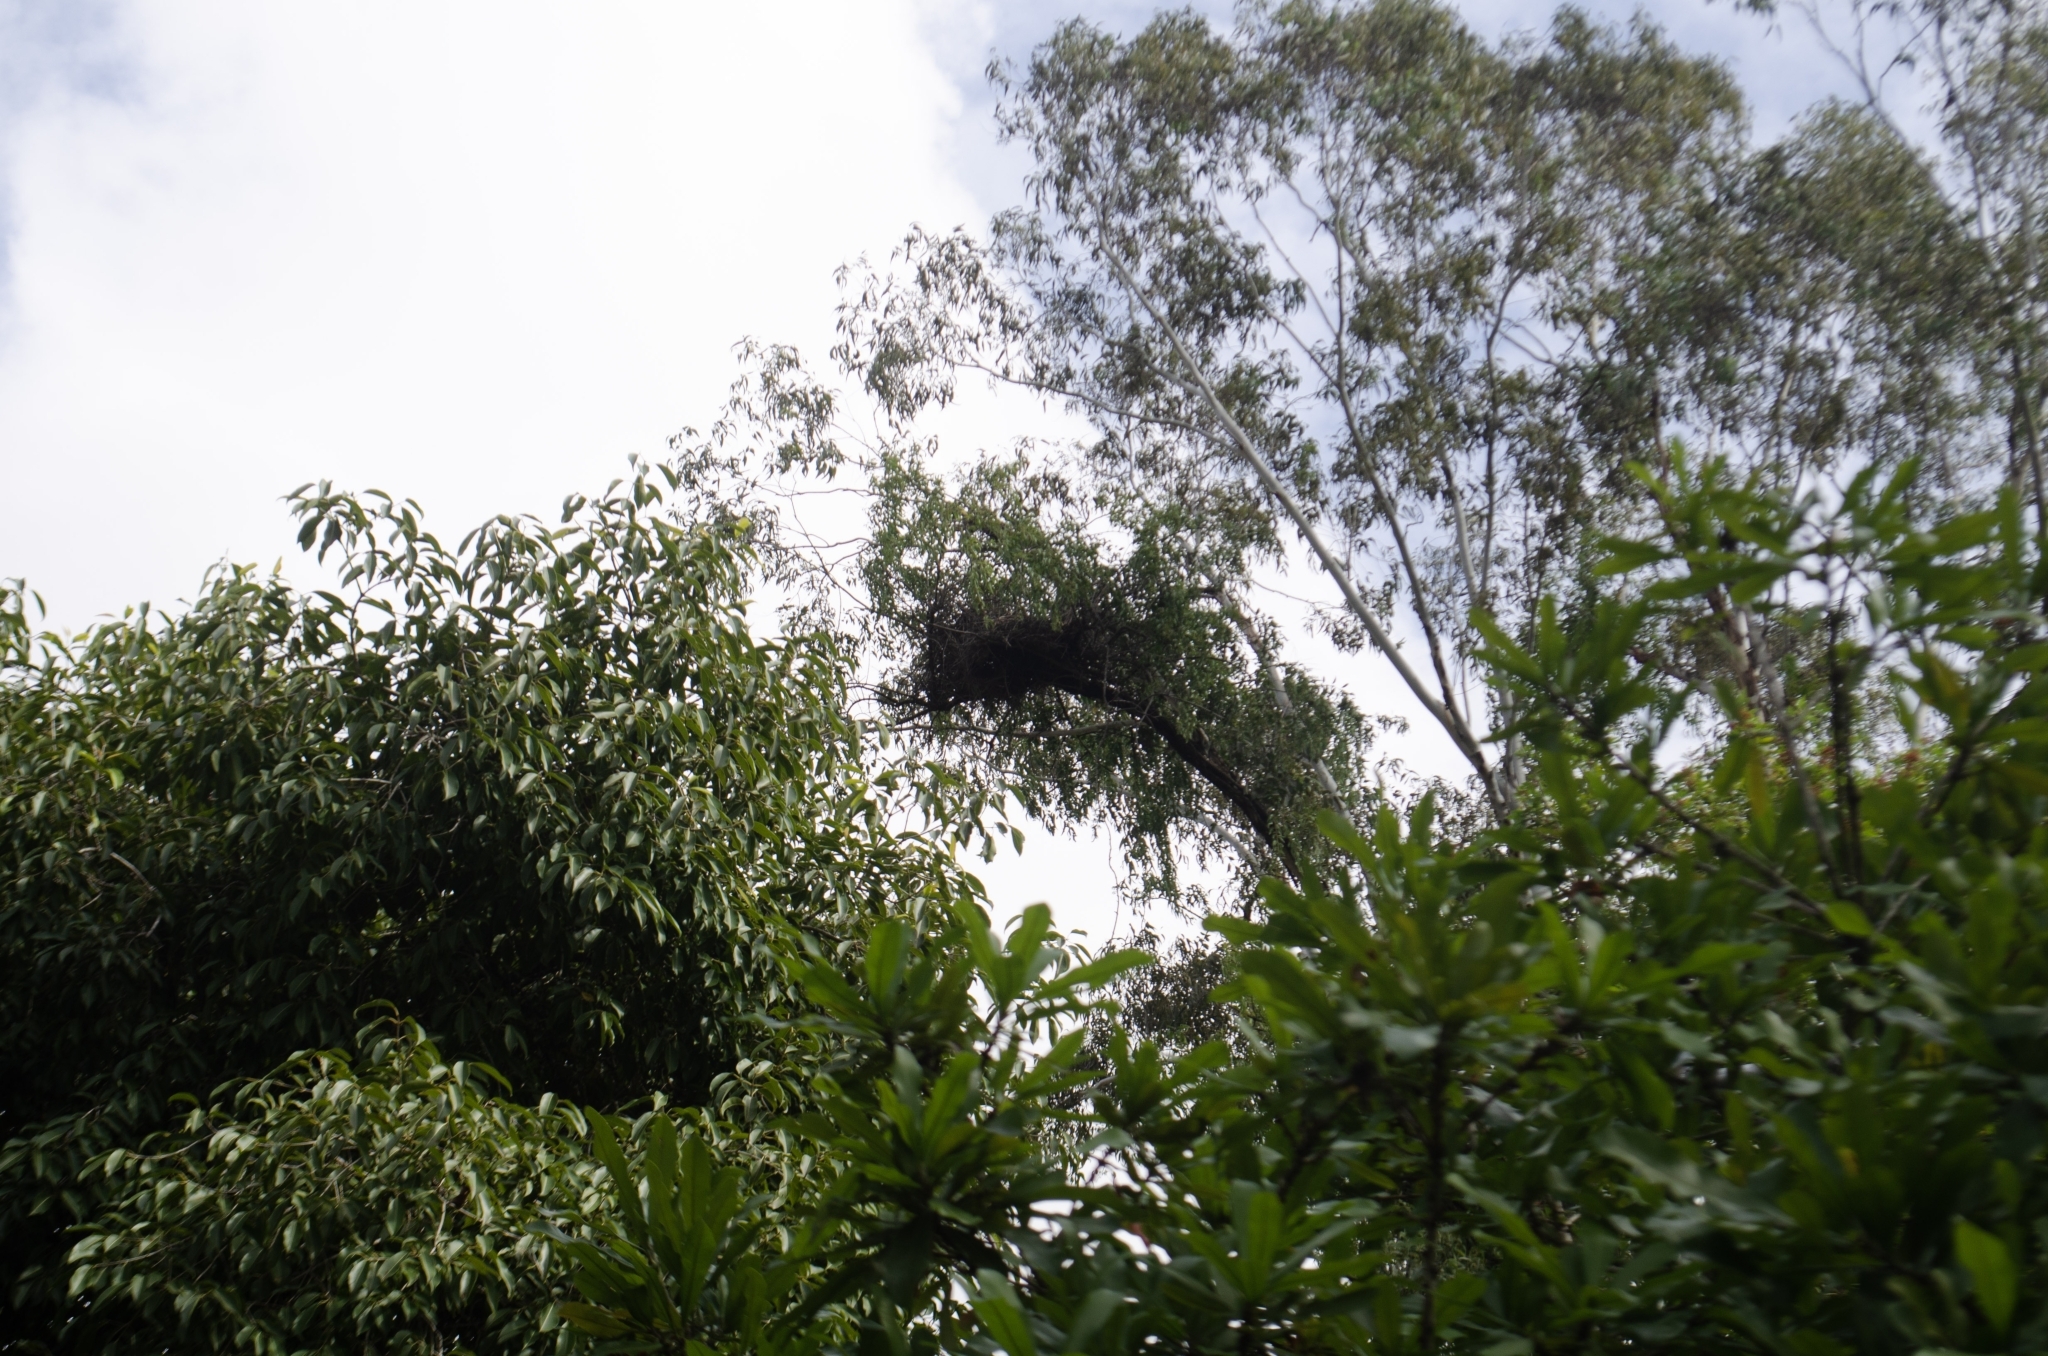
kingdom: Animalia
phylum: Chordata
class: Aves
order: Psittaciformes
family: Psittacidae
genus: Myiopsitta
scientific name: Myiopsitta monachus
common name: Monk parakeet
